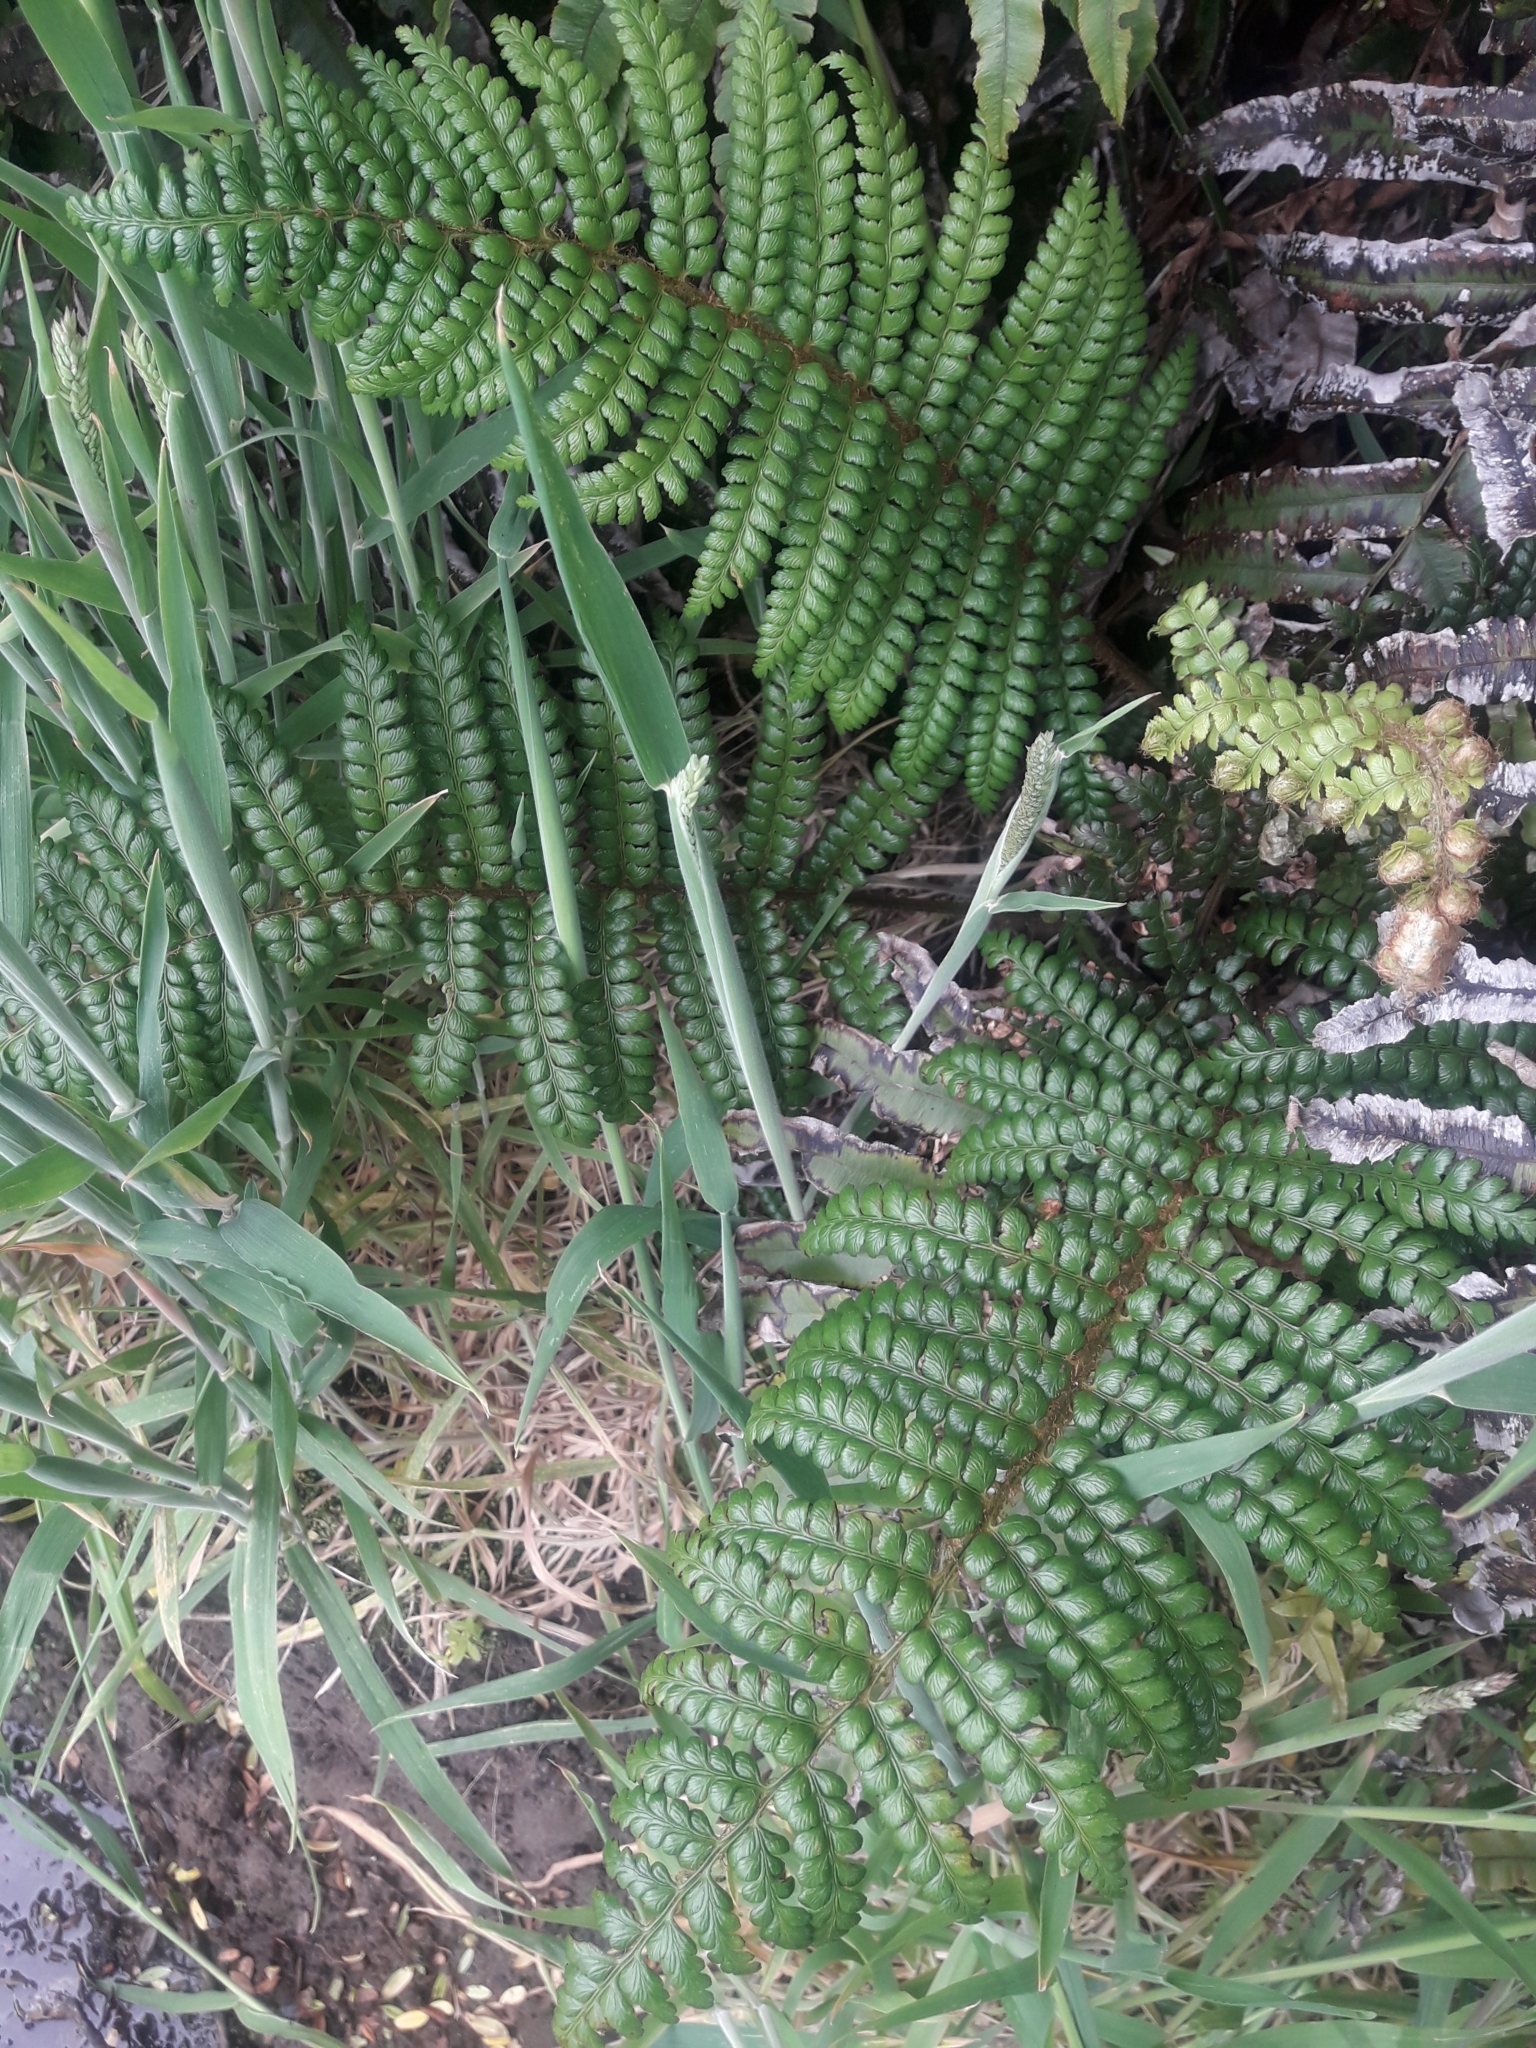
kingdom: Plantae
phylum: Tracheophyta
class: Polypodiopsida
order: Polypodiales
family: Dryopteridaceae
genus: Polystichum
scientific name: Polystichum vestitum
